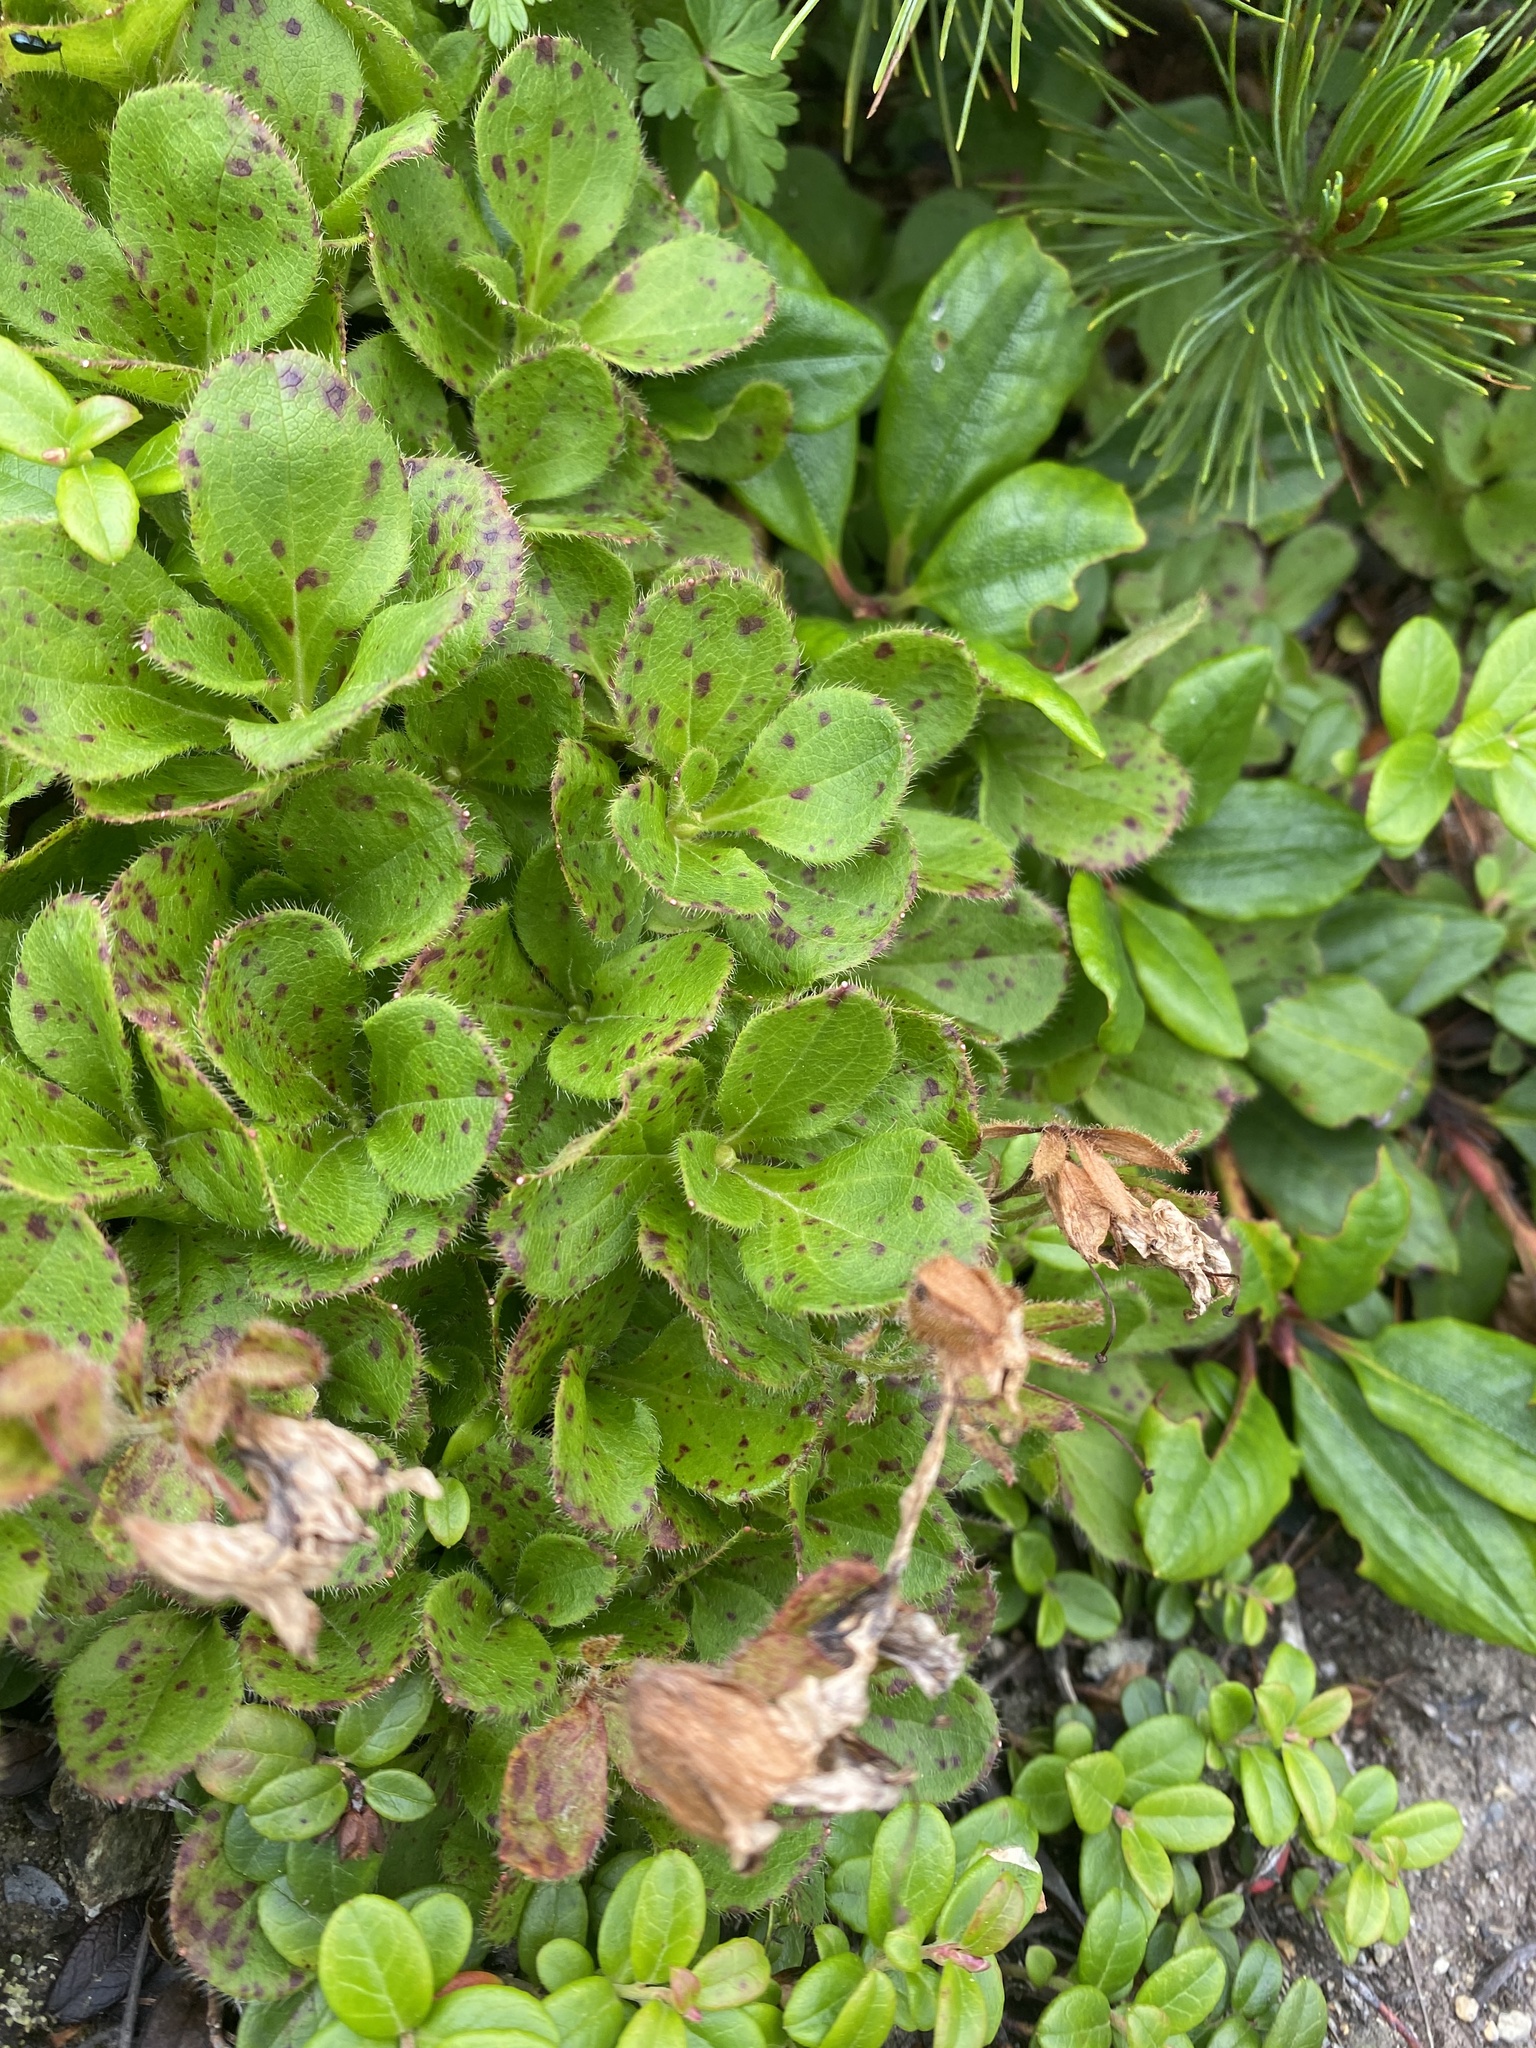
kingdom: Plantae
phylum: Tracheophyta
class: Magnoliopsida
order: Ericales
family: Ericaceae
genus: Rhododendron
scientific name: Rhododendron camtschaticum
